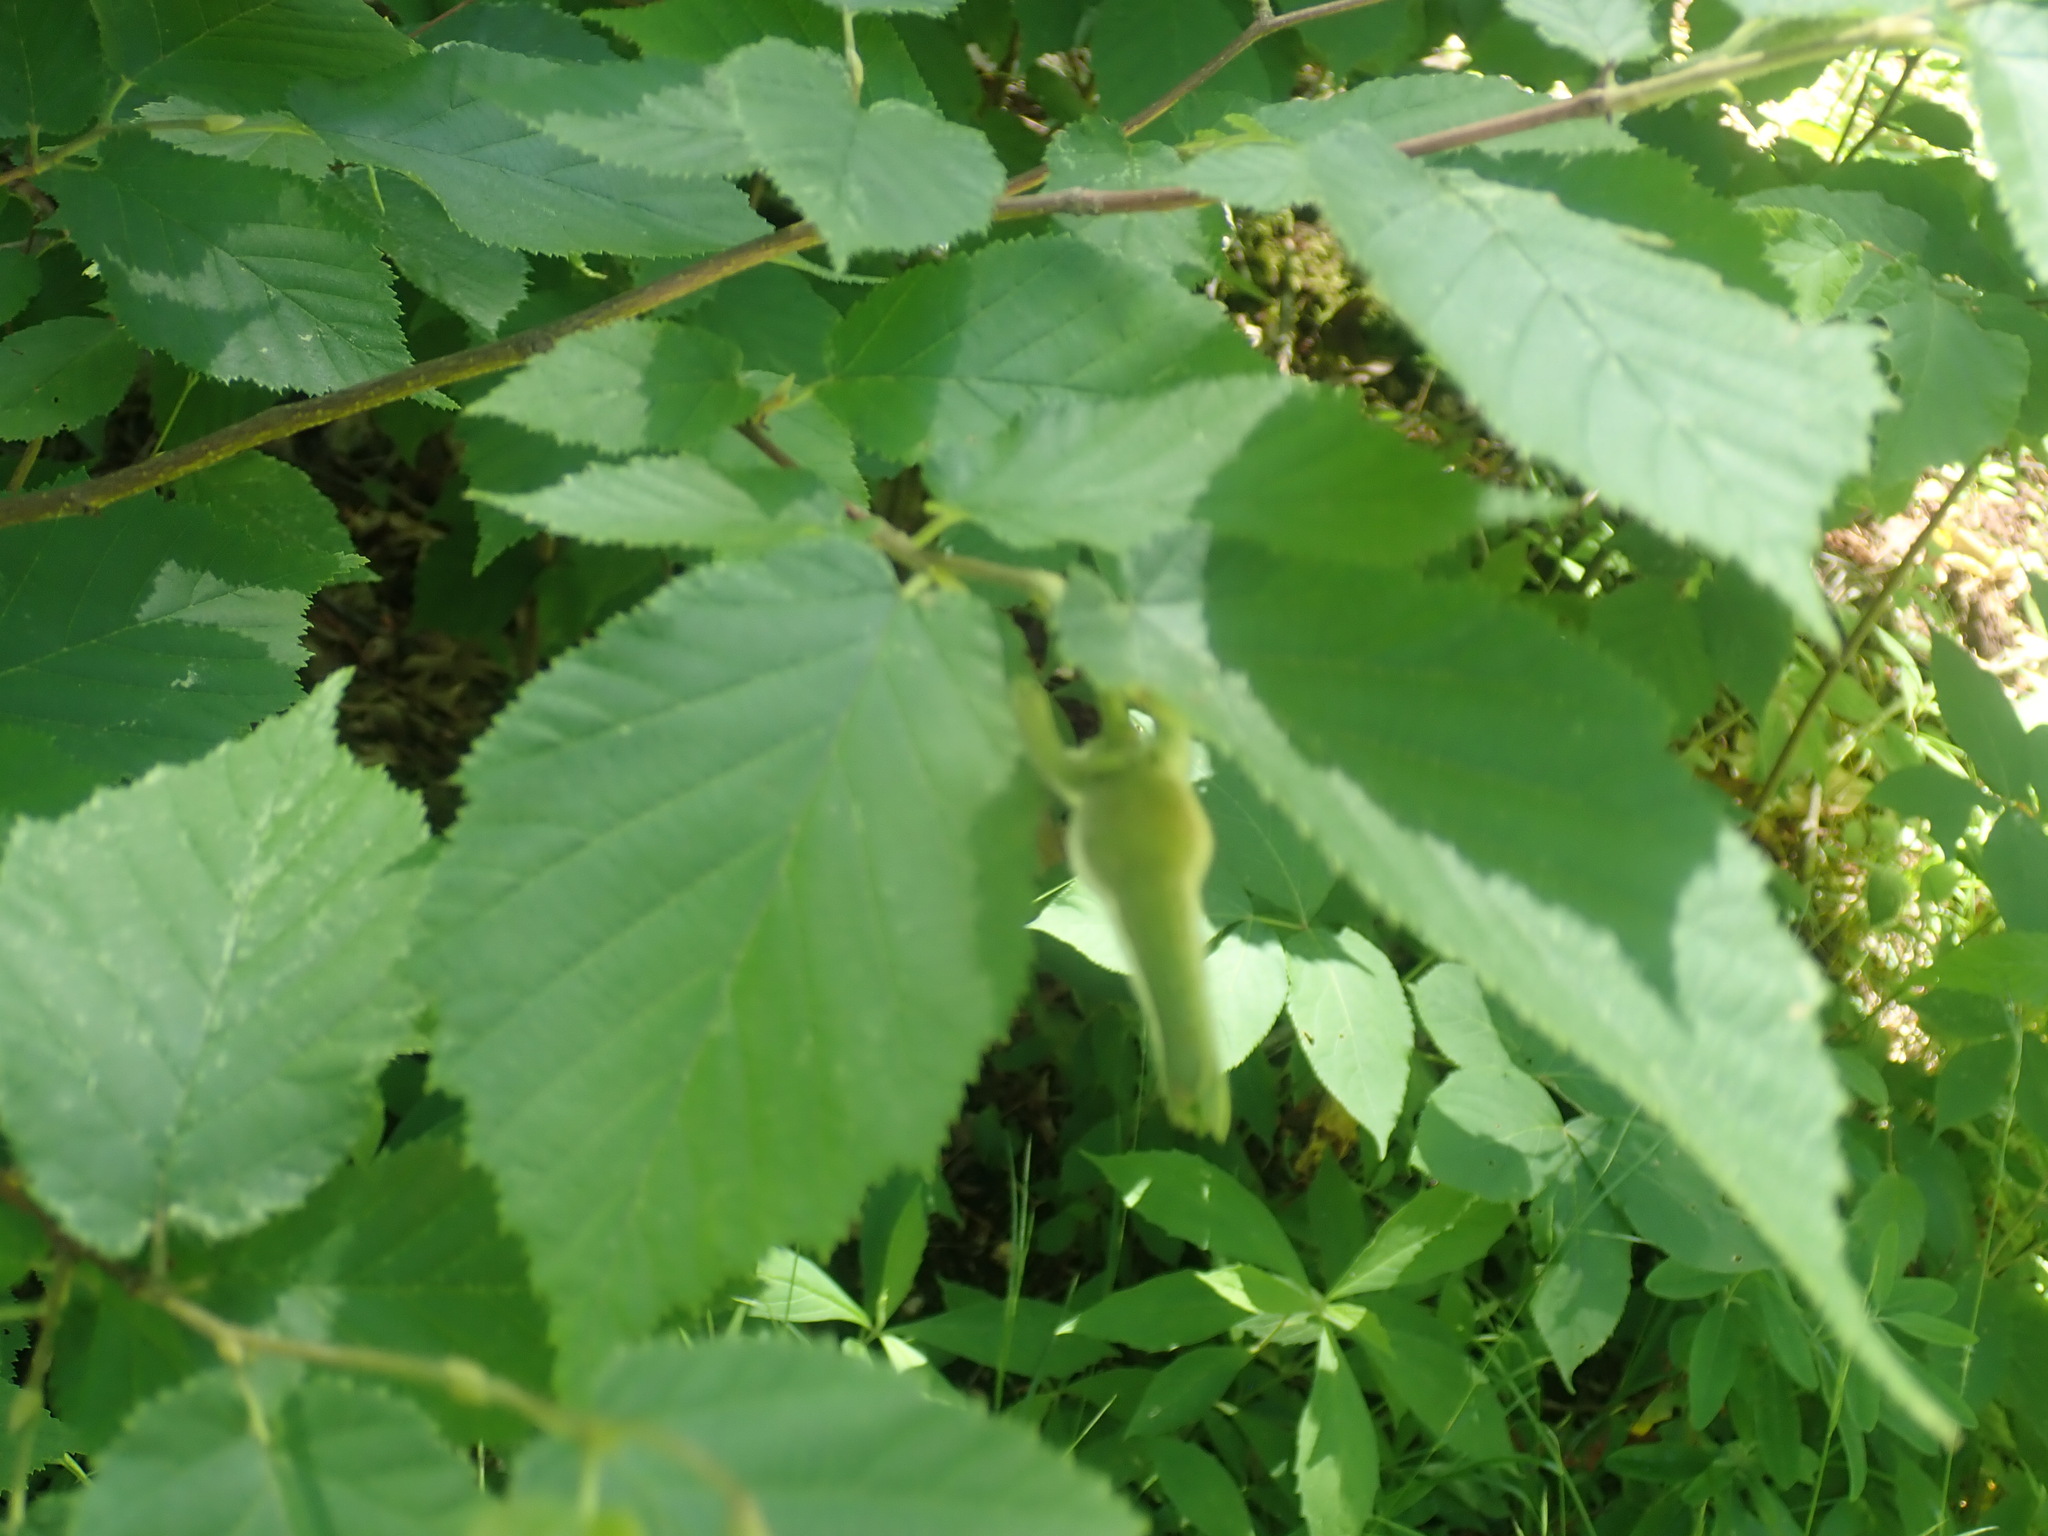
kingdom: Plantae
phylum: Tracheophyta
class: Magnoliopsida
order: Fagales
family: Betulaceae
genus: Corylus
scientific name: Corylus cornuta
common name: Beaked hazel
